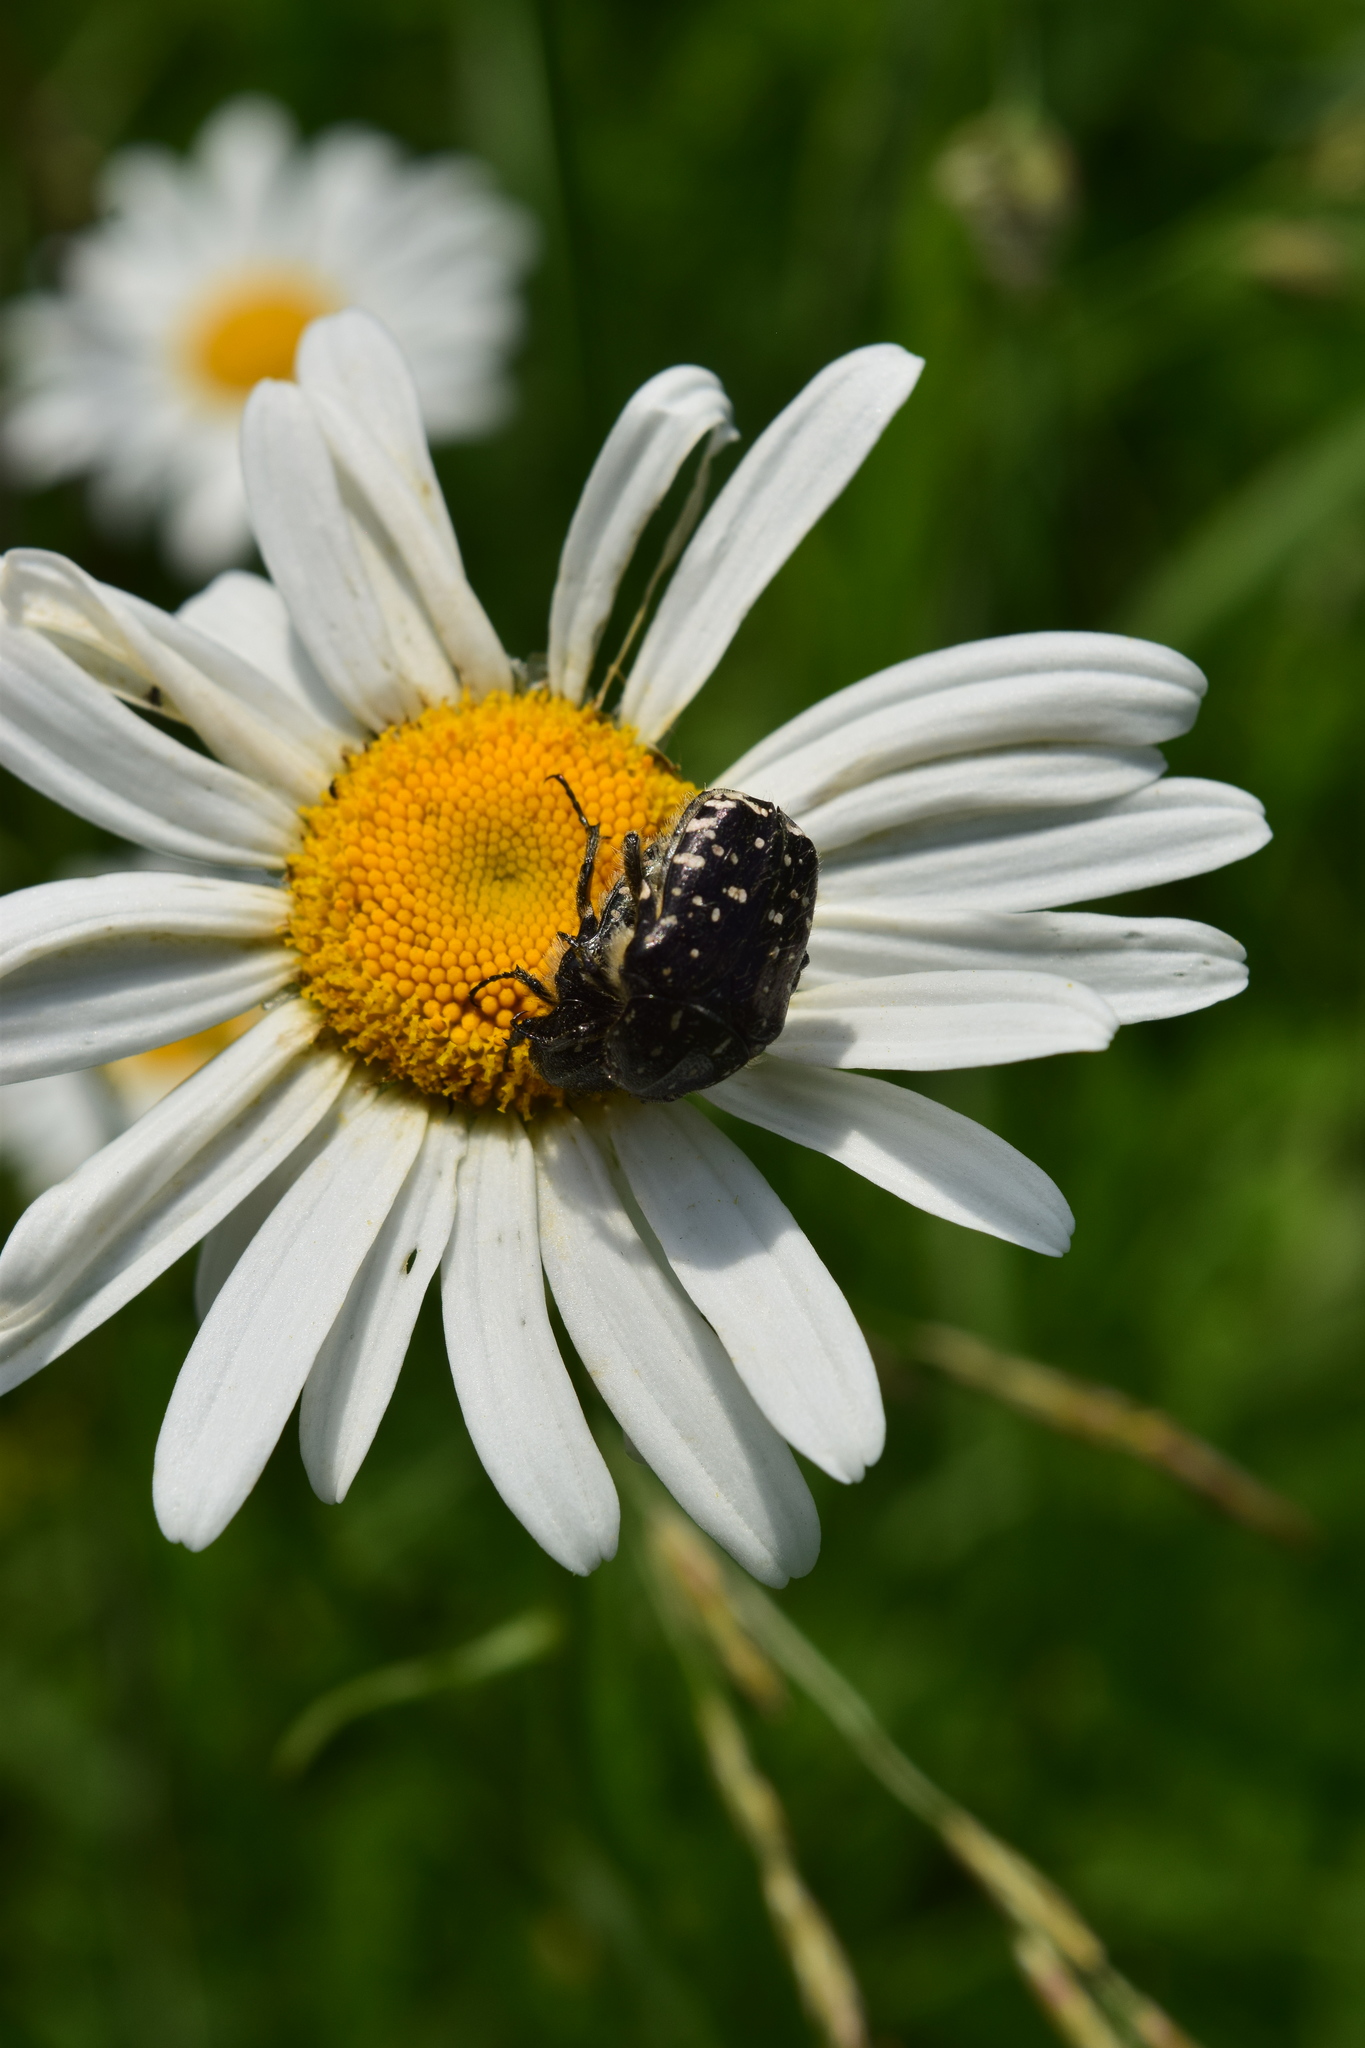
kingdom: Animalia
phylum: Arthropoda
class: Insecta
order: Coleoptera
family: Scarabaeidae
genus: Oxythyrea
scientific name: Oxythyrea funesta
